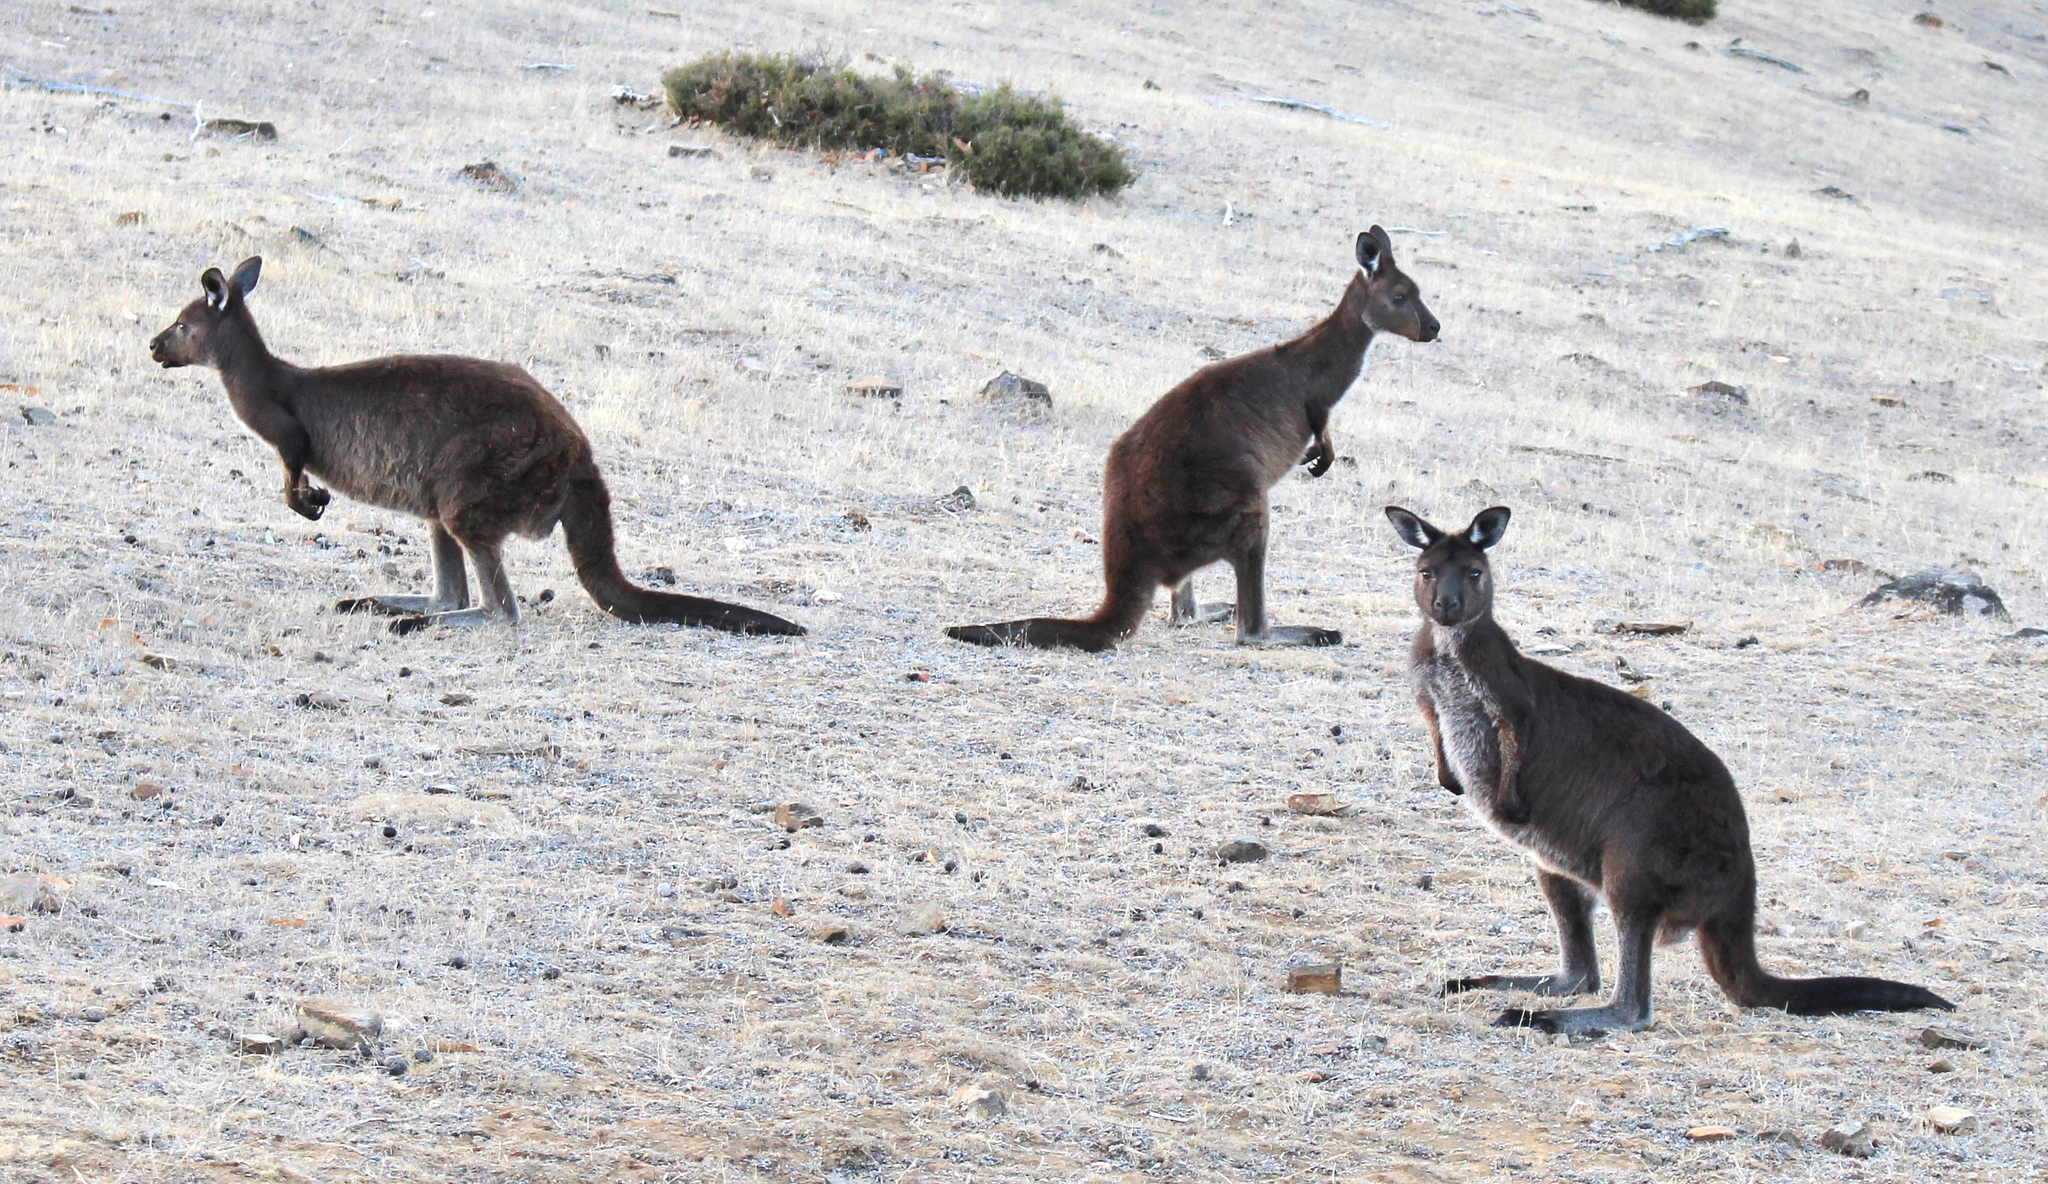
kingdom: Animalia
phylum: Chordata
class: Mammalia
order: Diprotodontia
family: Macropodidae
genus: Macropus
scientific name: Macropus fuliginosus
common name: Western grey kangaroo
